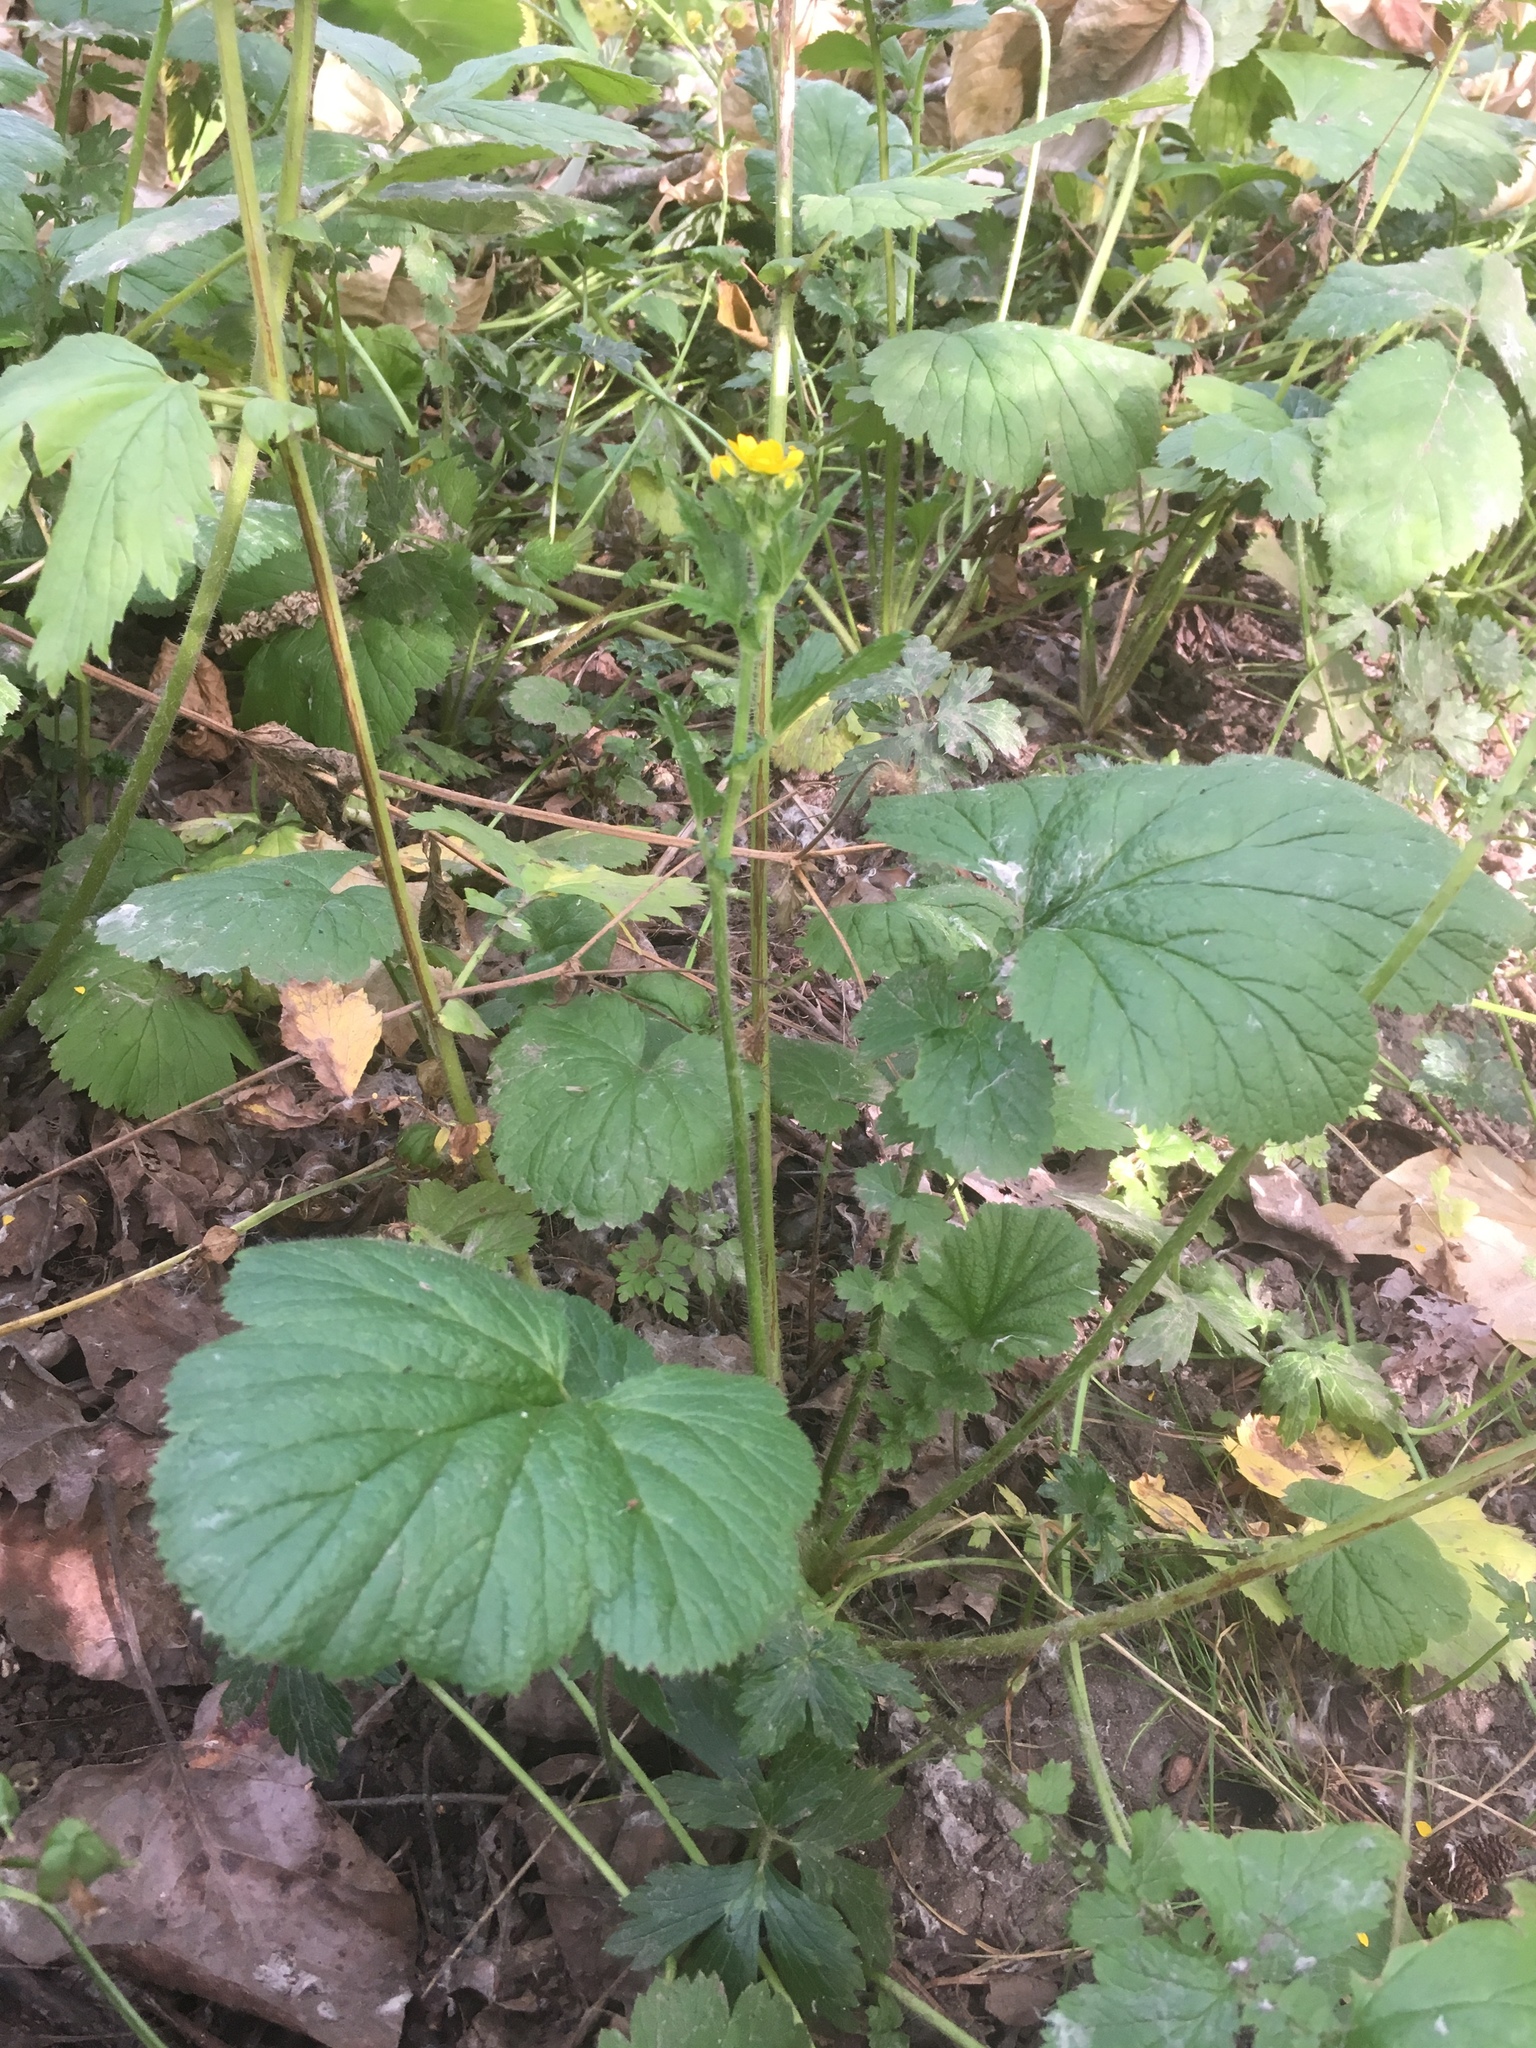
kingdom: Plantae
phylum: Tracheophyta
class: Magnoliopsida
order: Rosales
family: Rosaceae
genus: Geum
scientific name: Geum macrophyllum
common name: Large-leaved avens
